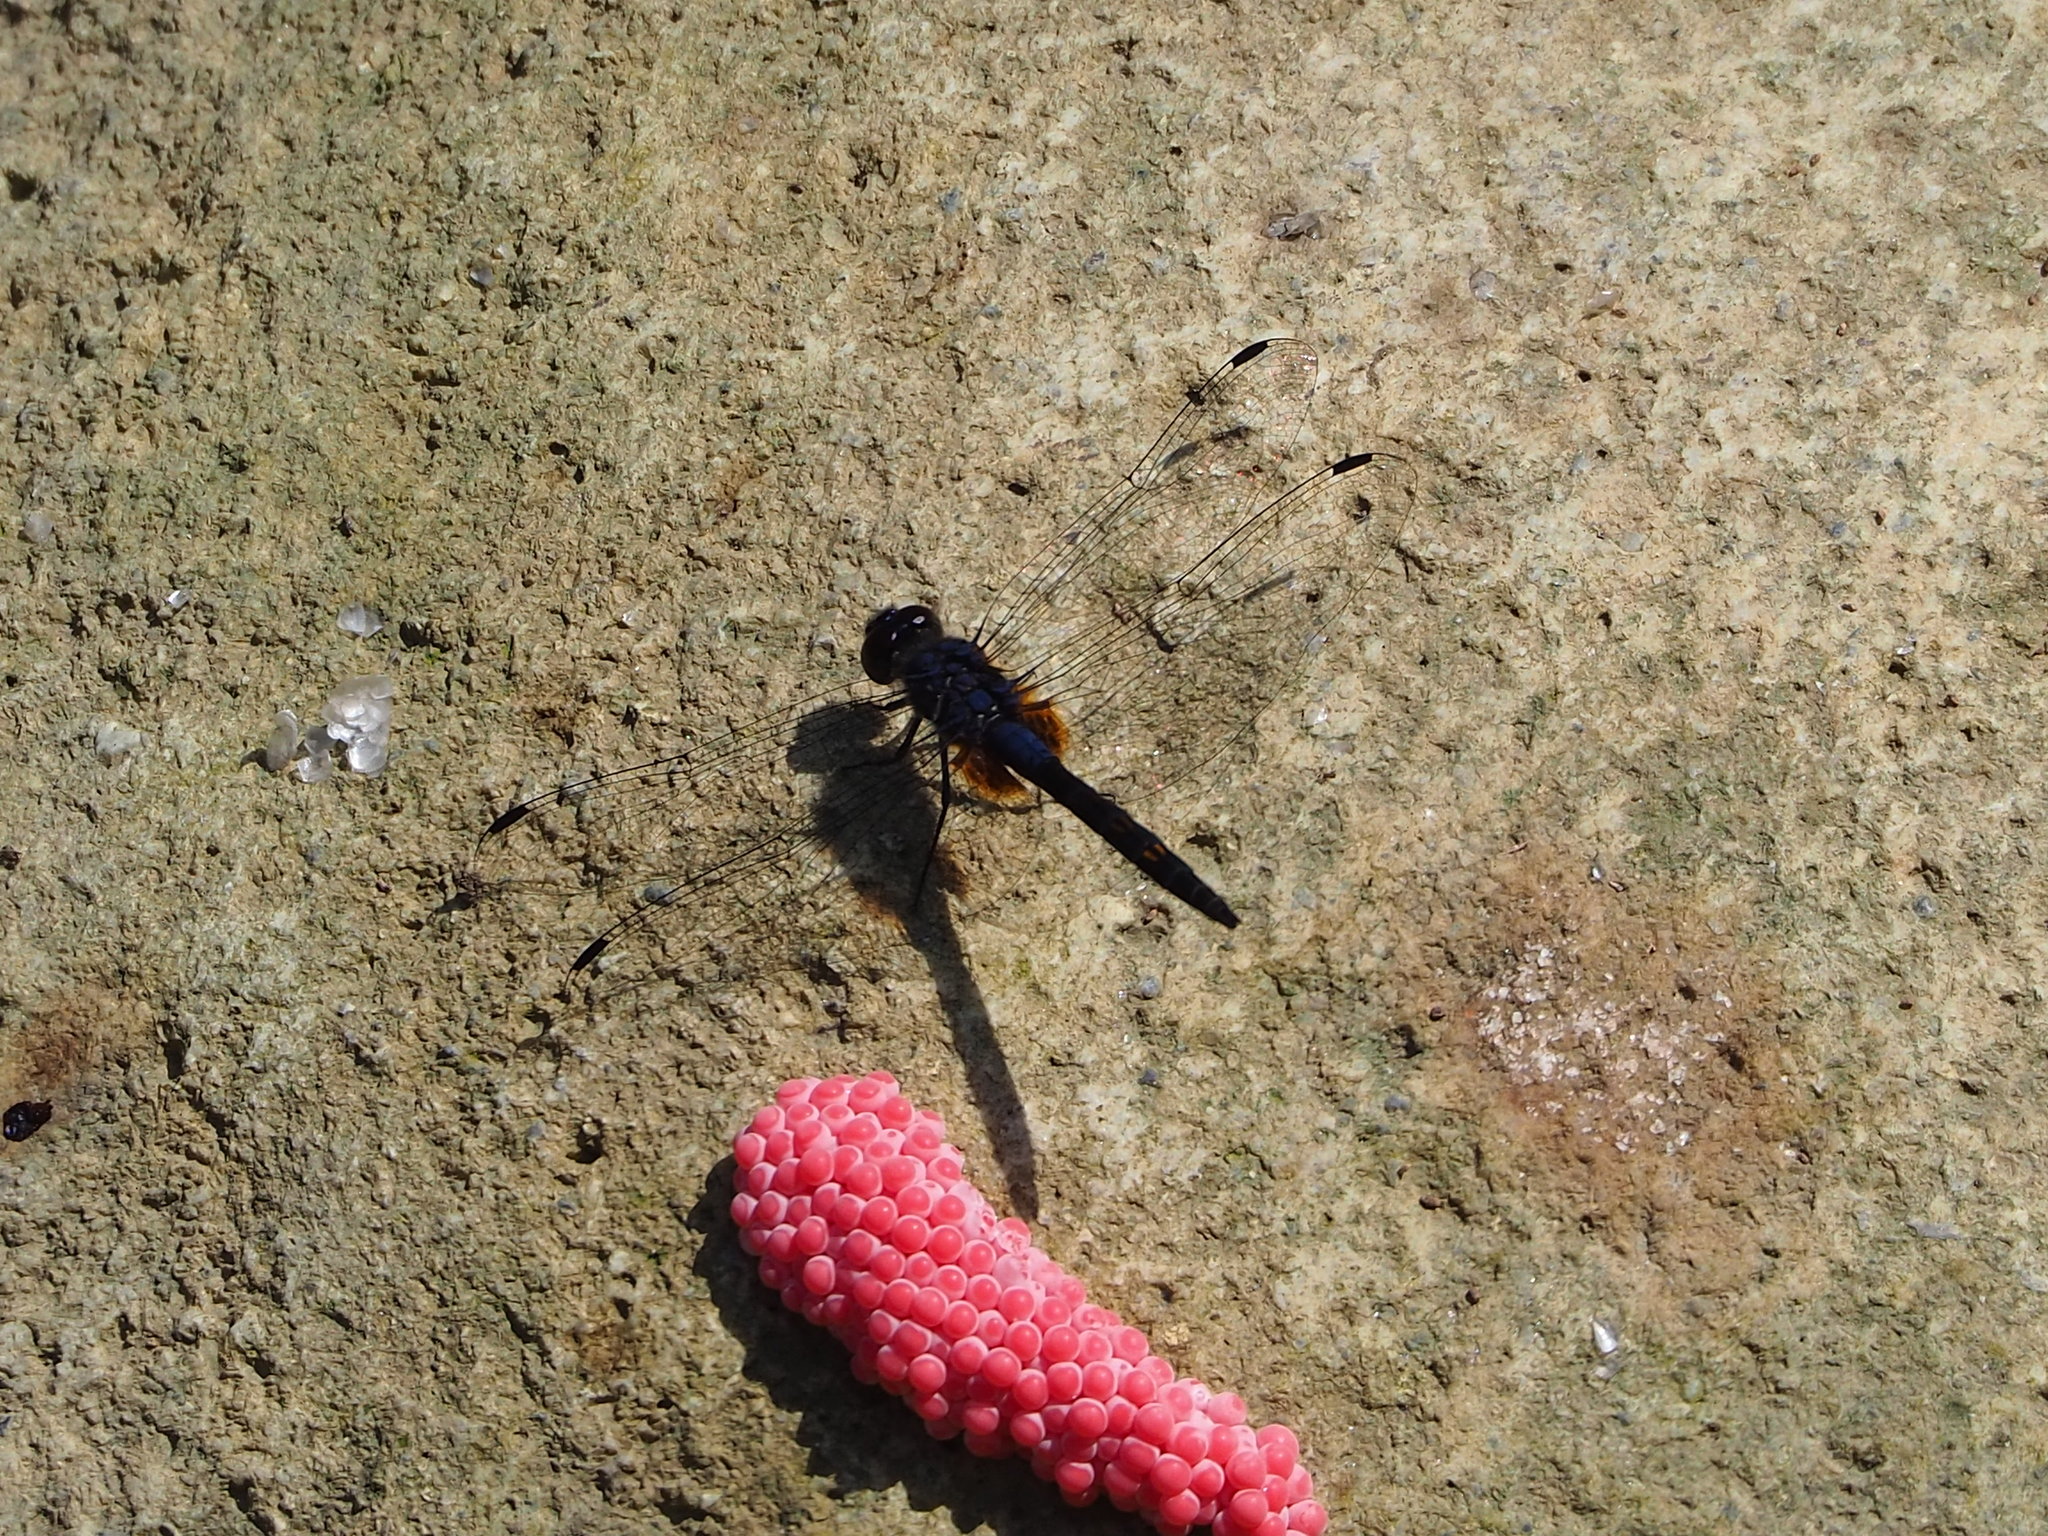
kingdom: Animalia
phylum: Arthropoda
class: Insecta
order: Odonata
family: Libellulidae
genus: Trithemis
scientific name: Trithemis festiva
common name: Indigo dropwing
